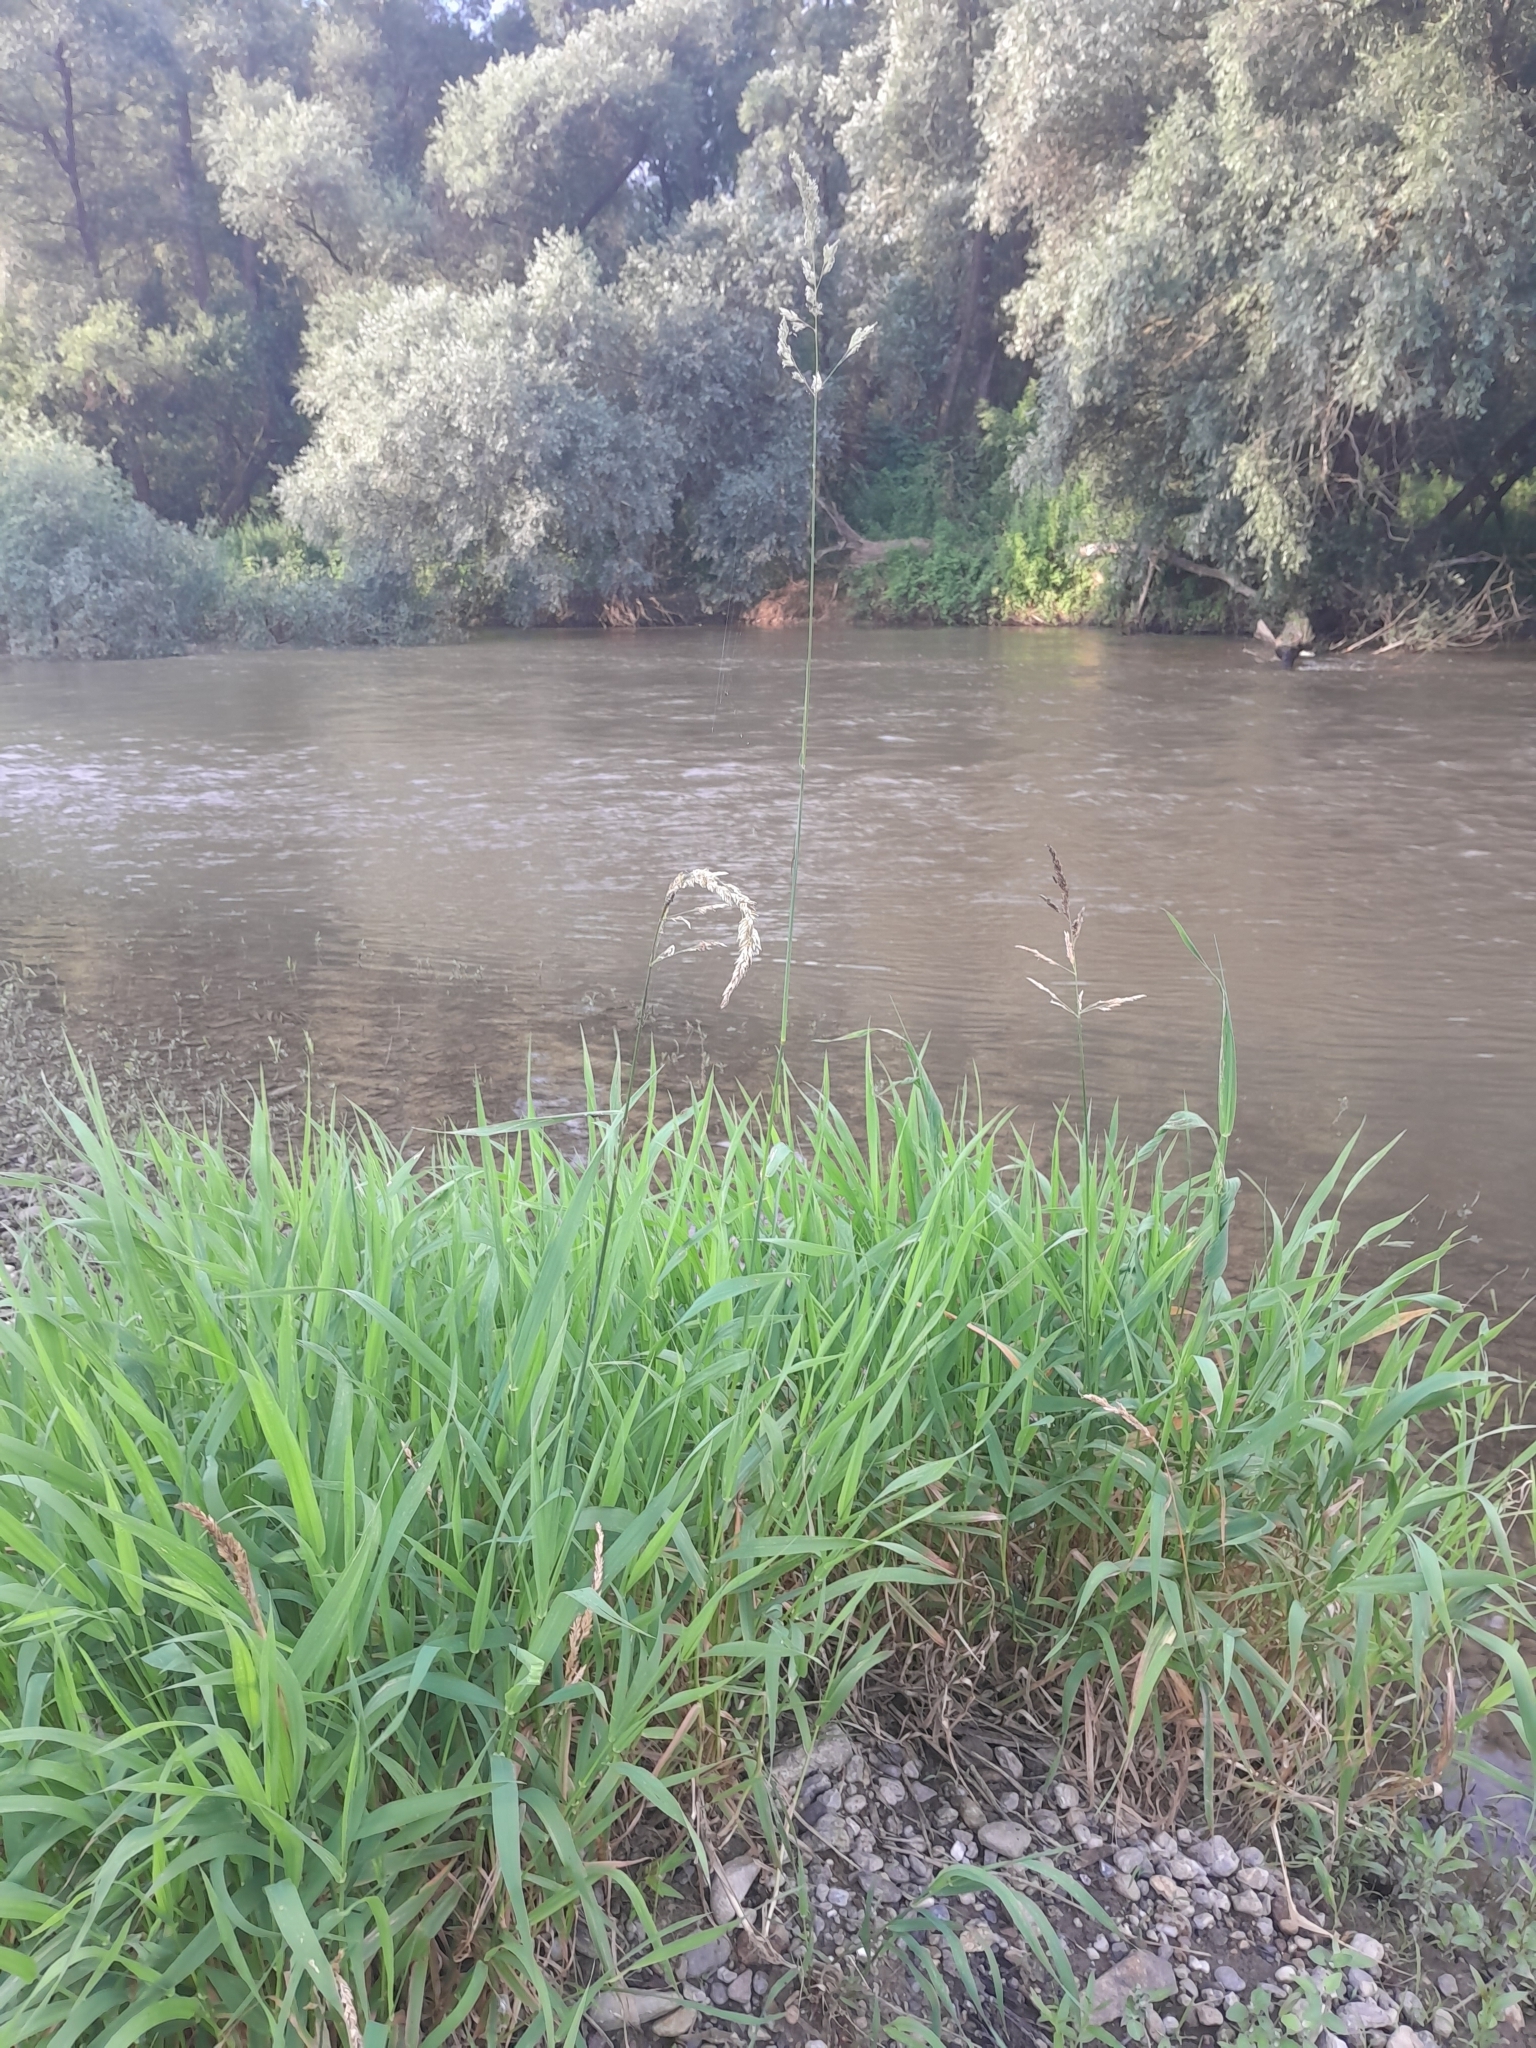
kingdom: Plantae
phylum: Tracheophyta
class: Liliopsida
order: Poales
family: Poaceae
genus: Phalaris
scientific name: Phalaris arundinacea
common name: Reed canary-grass
